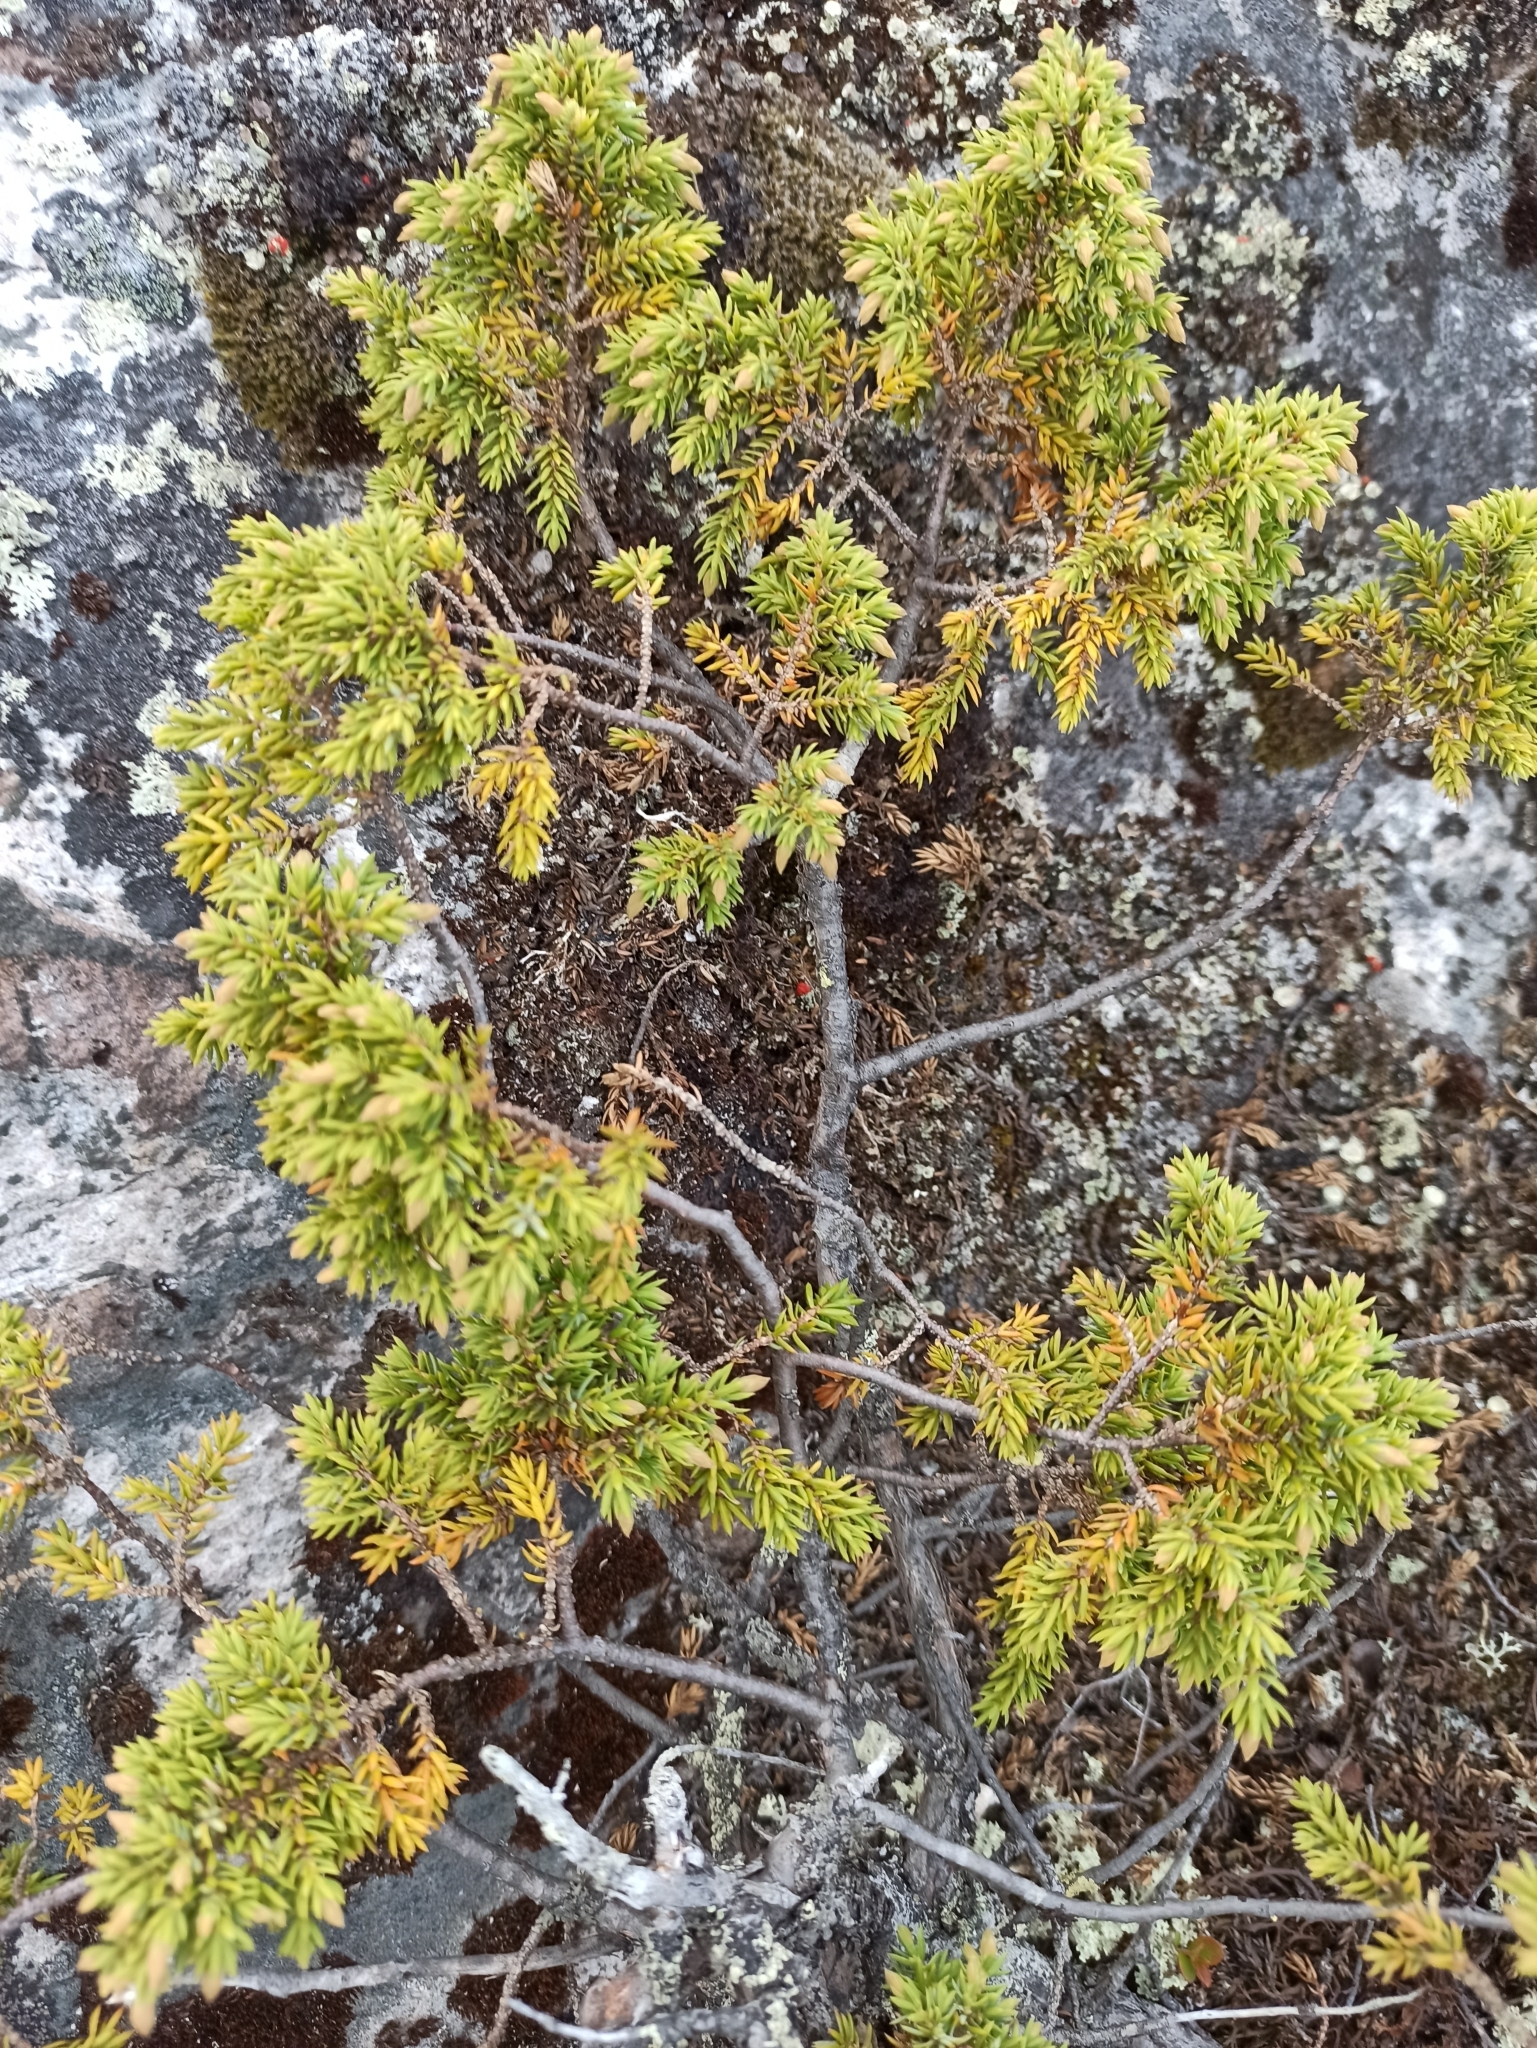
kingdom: Plantae
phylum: Tracheophyta
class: Pinopsida
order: Pinales
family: Cupressaceae
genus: Juniperus
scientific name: Juniperus communis
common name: Common juniper
